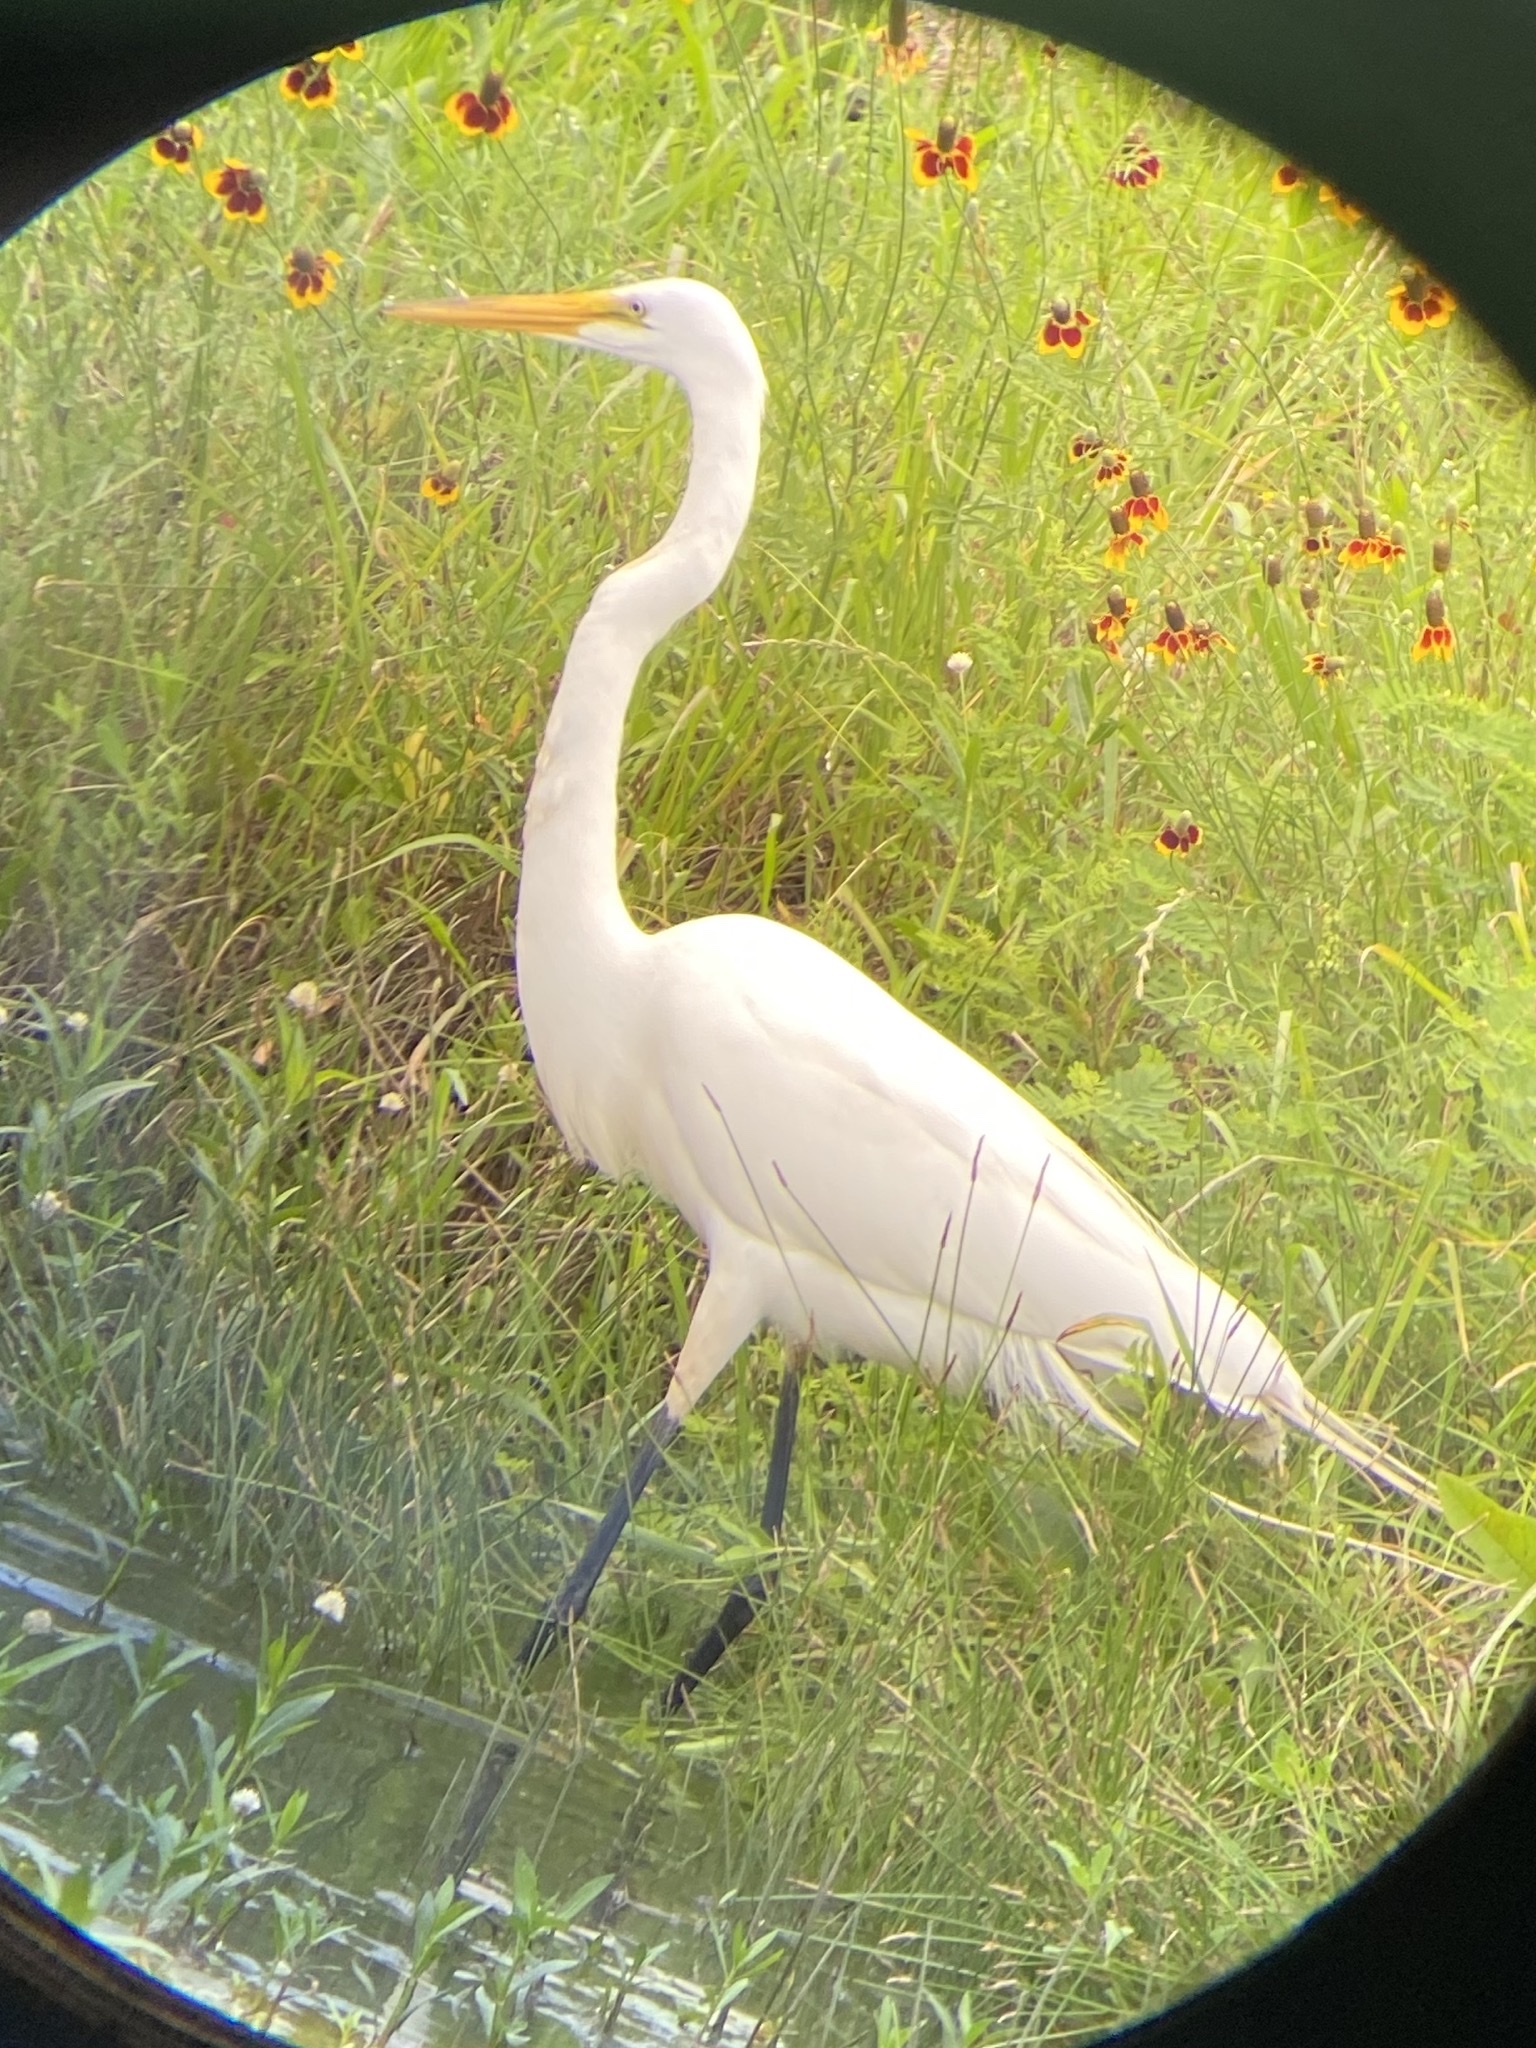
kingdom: Animalia
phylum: Chordata
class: Aves
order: Pelecaniformes
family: Ardeidae
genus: Ardea
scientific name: Ardea alba
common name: Great egret
